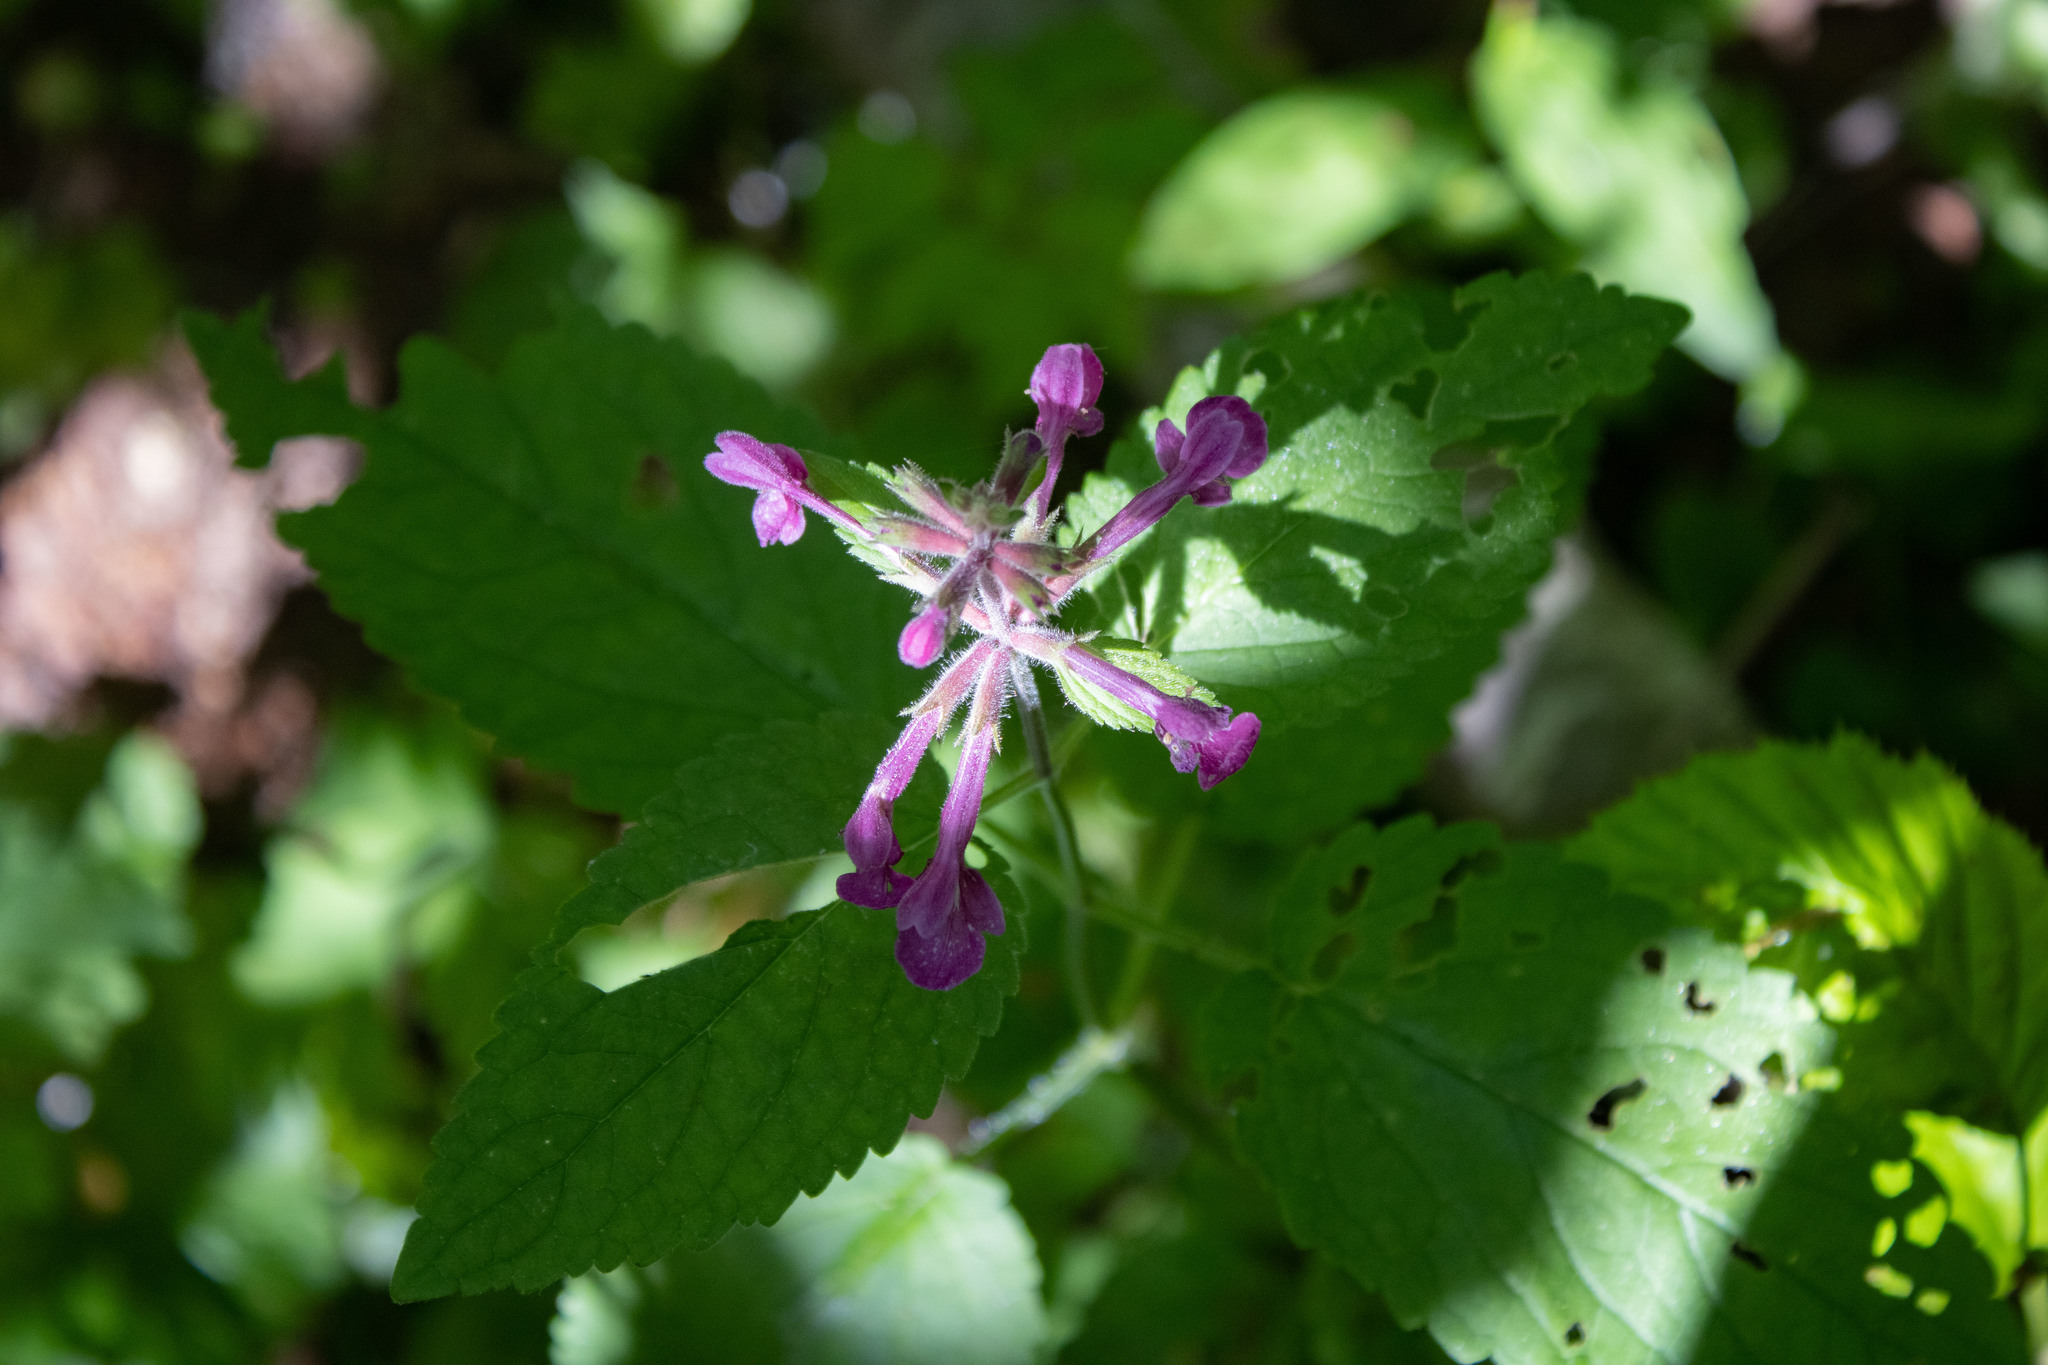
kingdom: Plantae
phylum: Tracheophyta
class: Magnoliopsida
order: Lamiales
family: Lamiaceae
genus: Stachys
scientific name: Stachys chamissonis
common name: Coastal hedge-nettle
